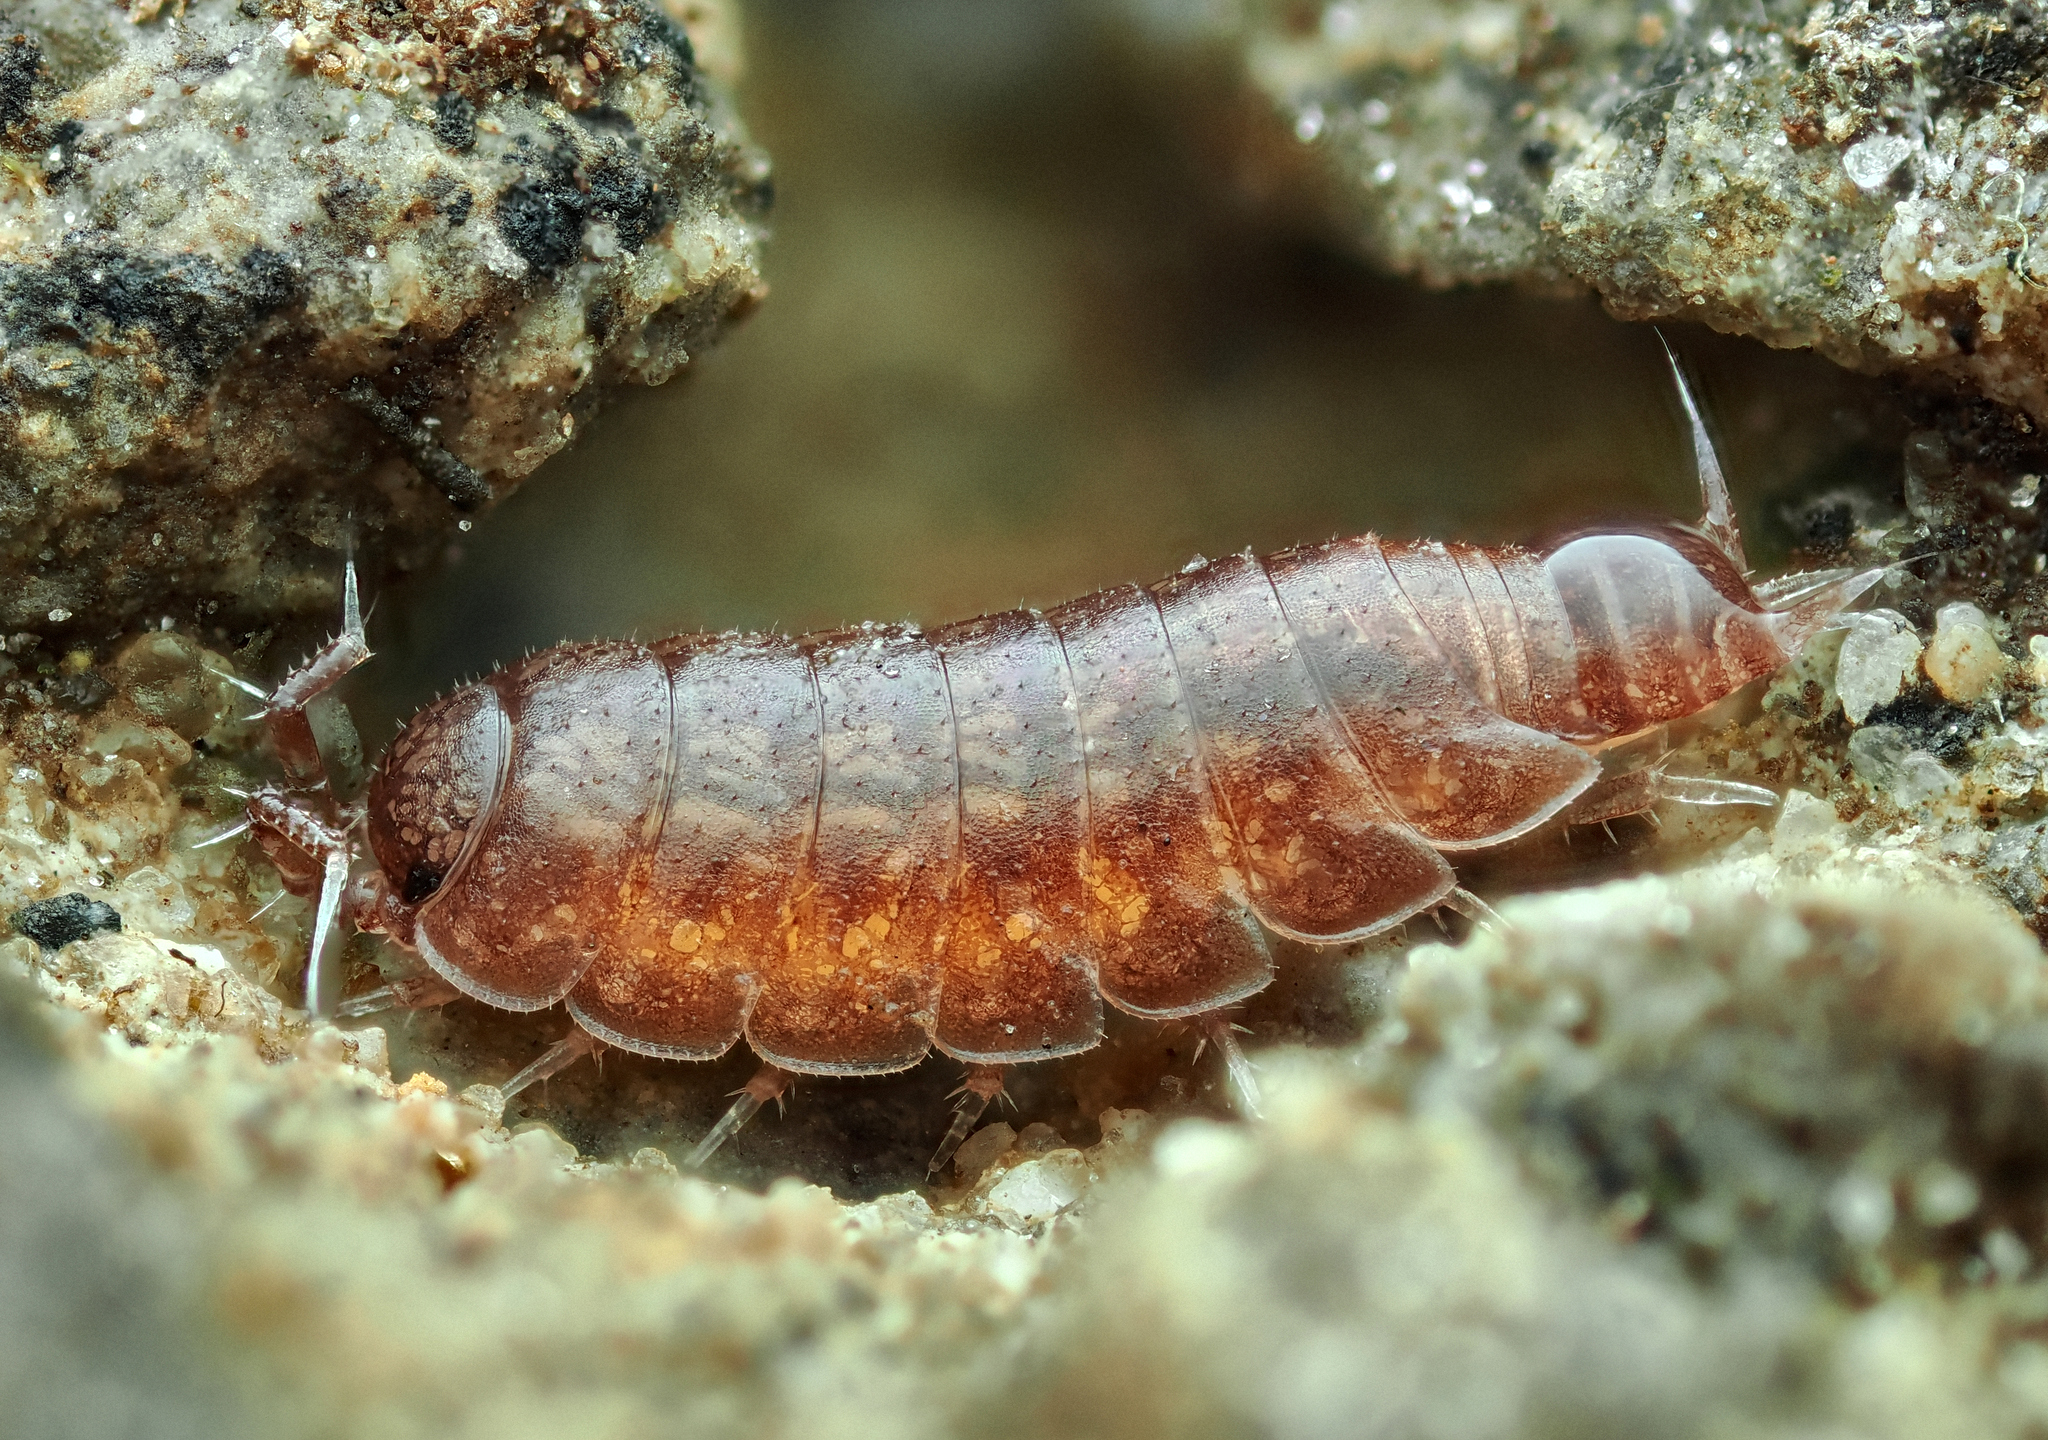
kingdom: Animalia
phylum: Arthropoda
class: Malacostraca
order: Isopoda
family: Trichoniscidae
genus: Trichoniscus
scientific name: Trichoniscus
